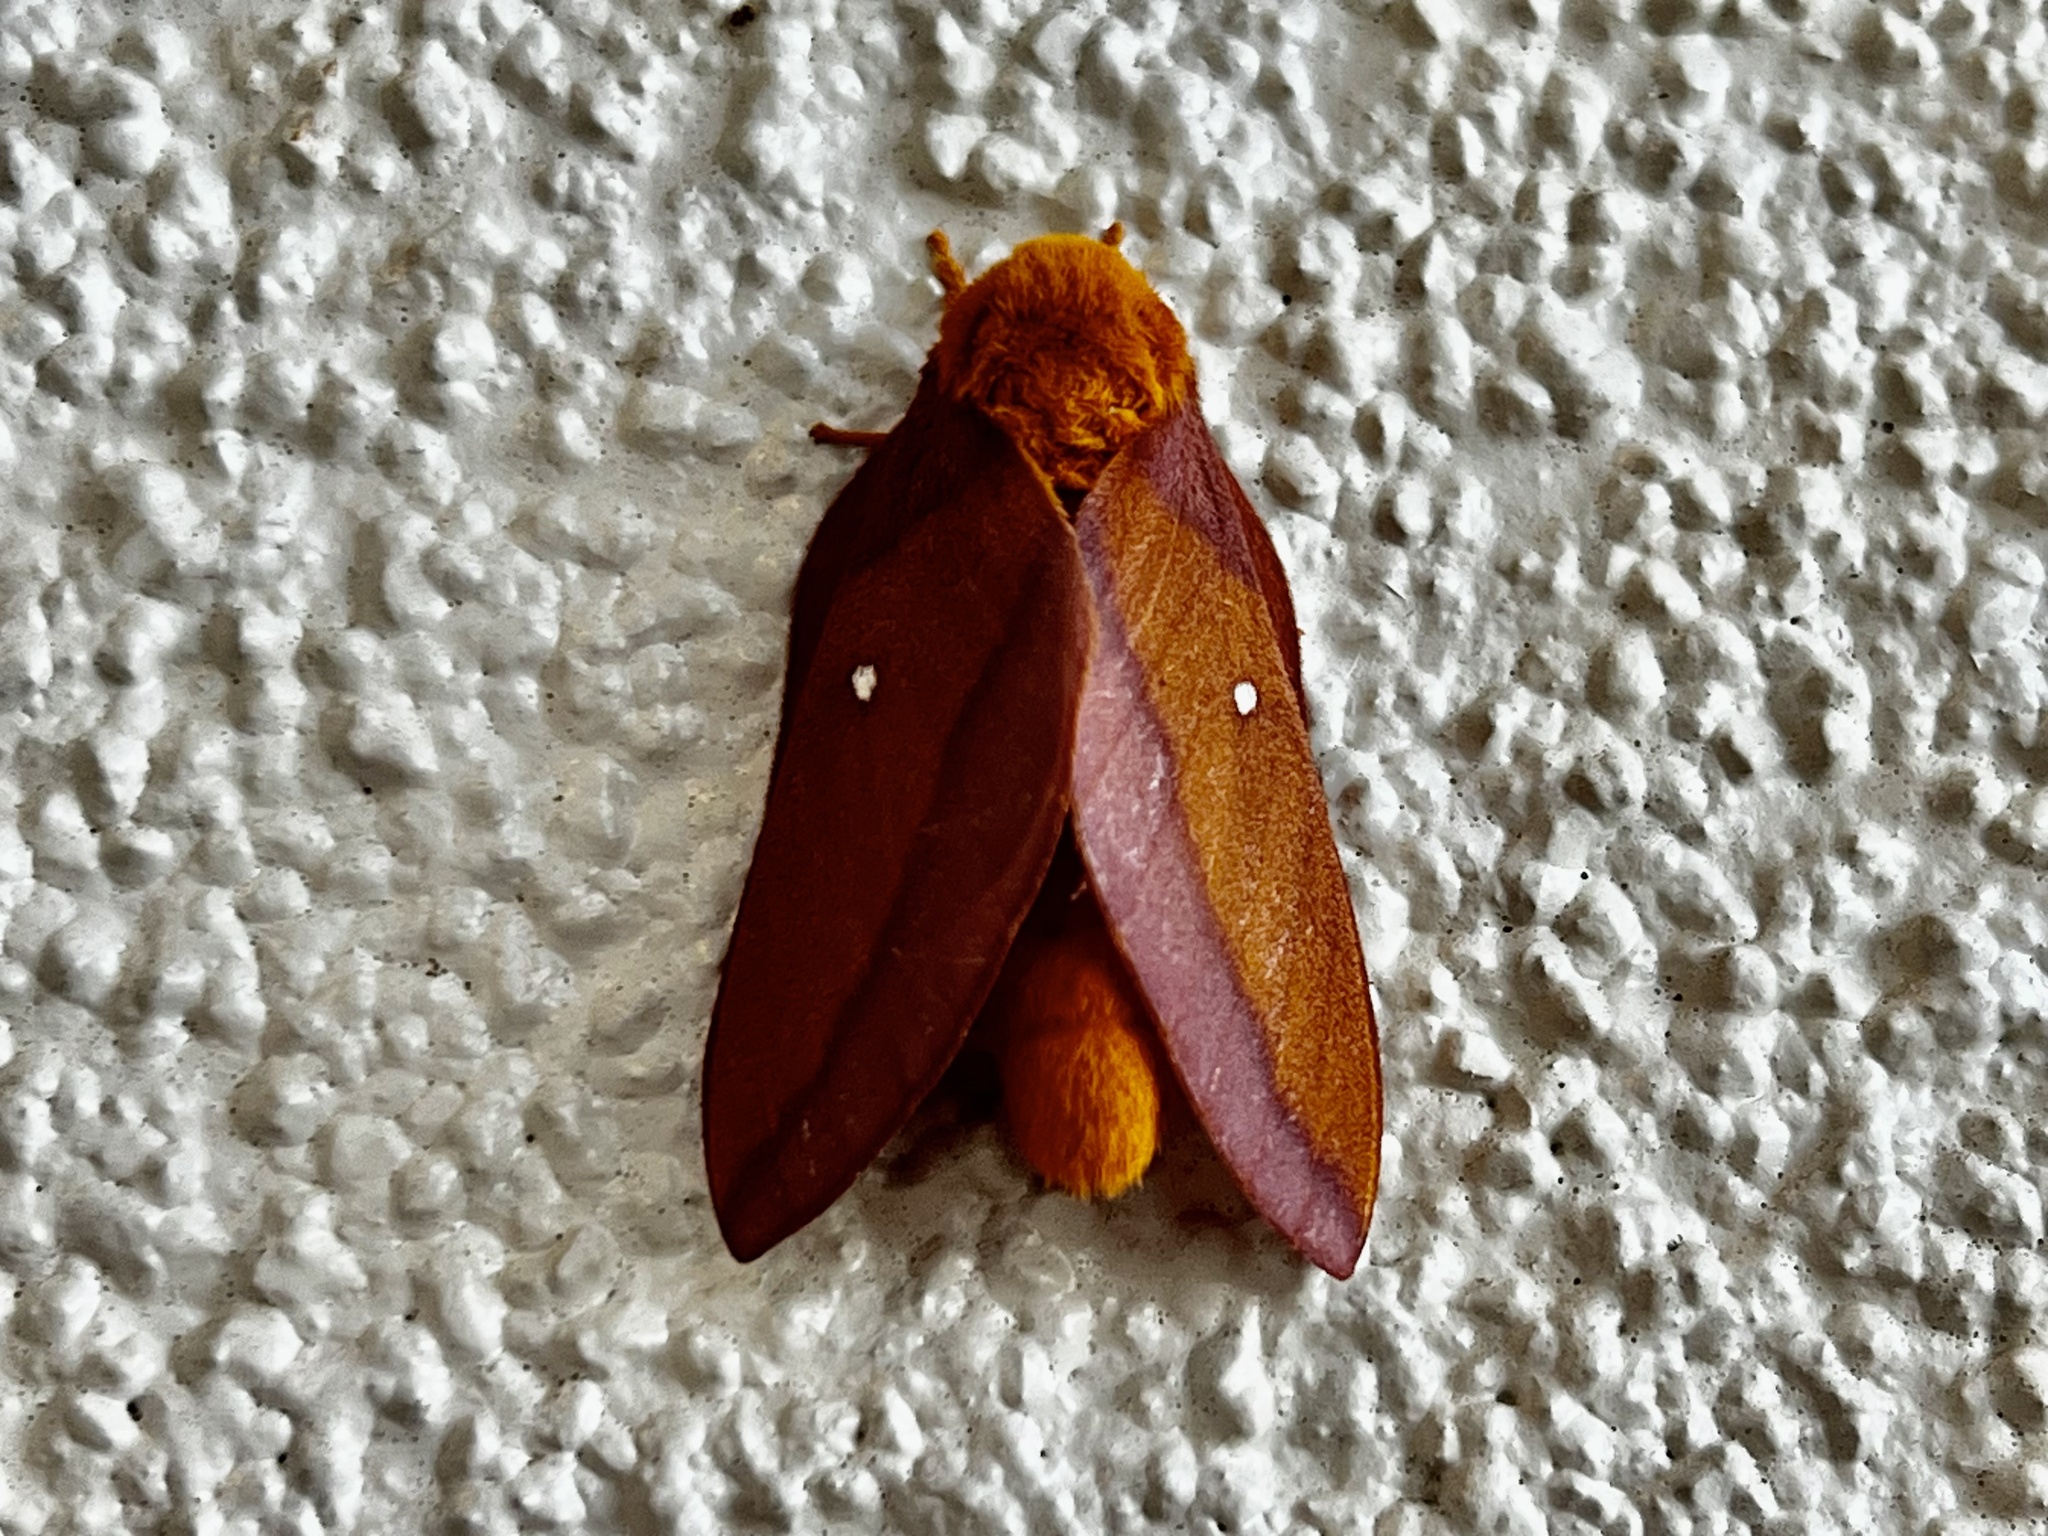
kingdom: Animalia
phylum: Arthropoda
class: Insecta
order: Lepidoptera
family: Saturniidae
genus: Anisota
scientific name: Anisota virginiensis
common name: Pink striped oakworm moth
